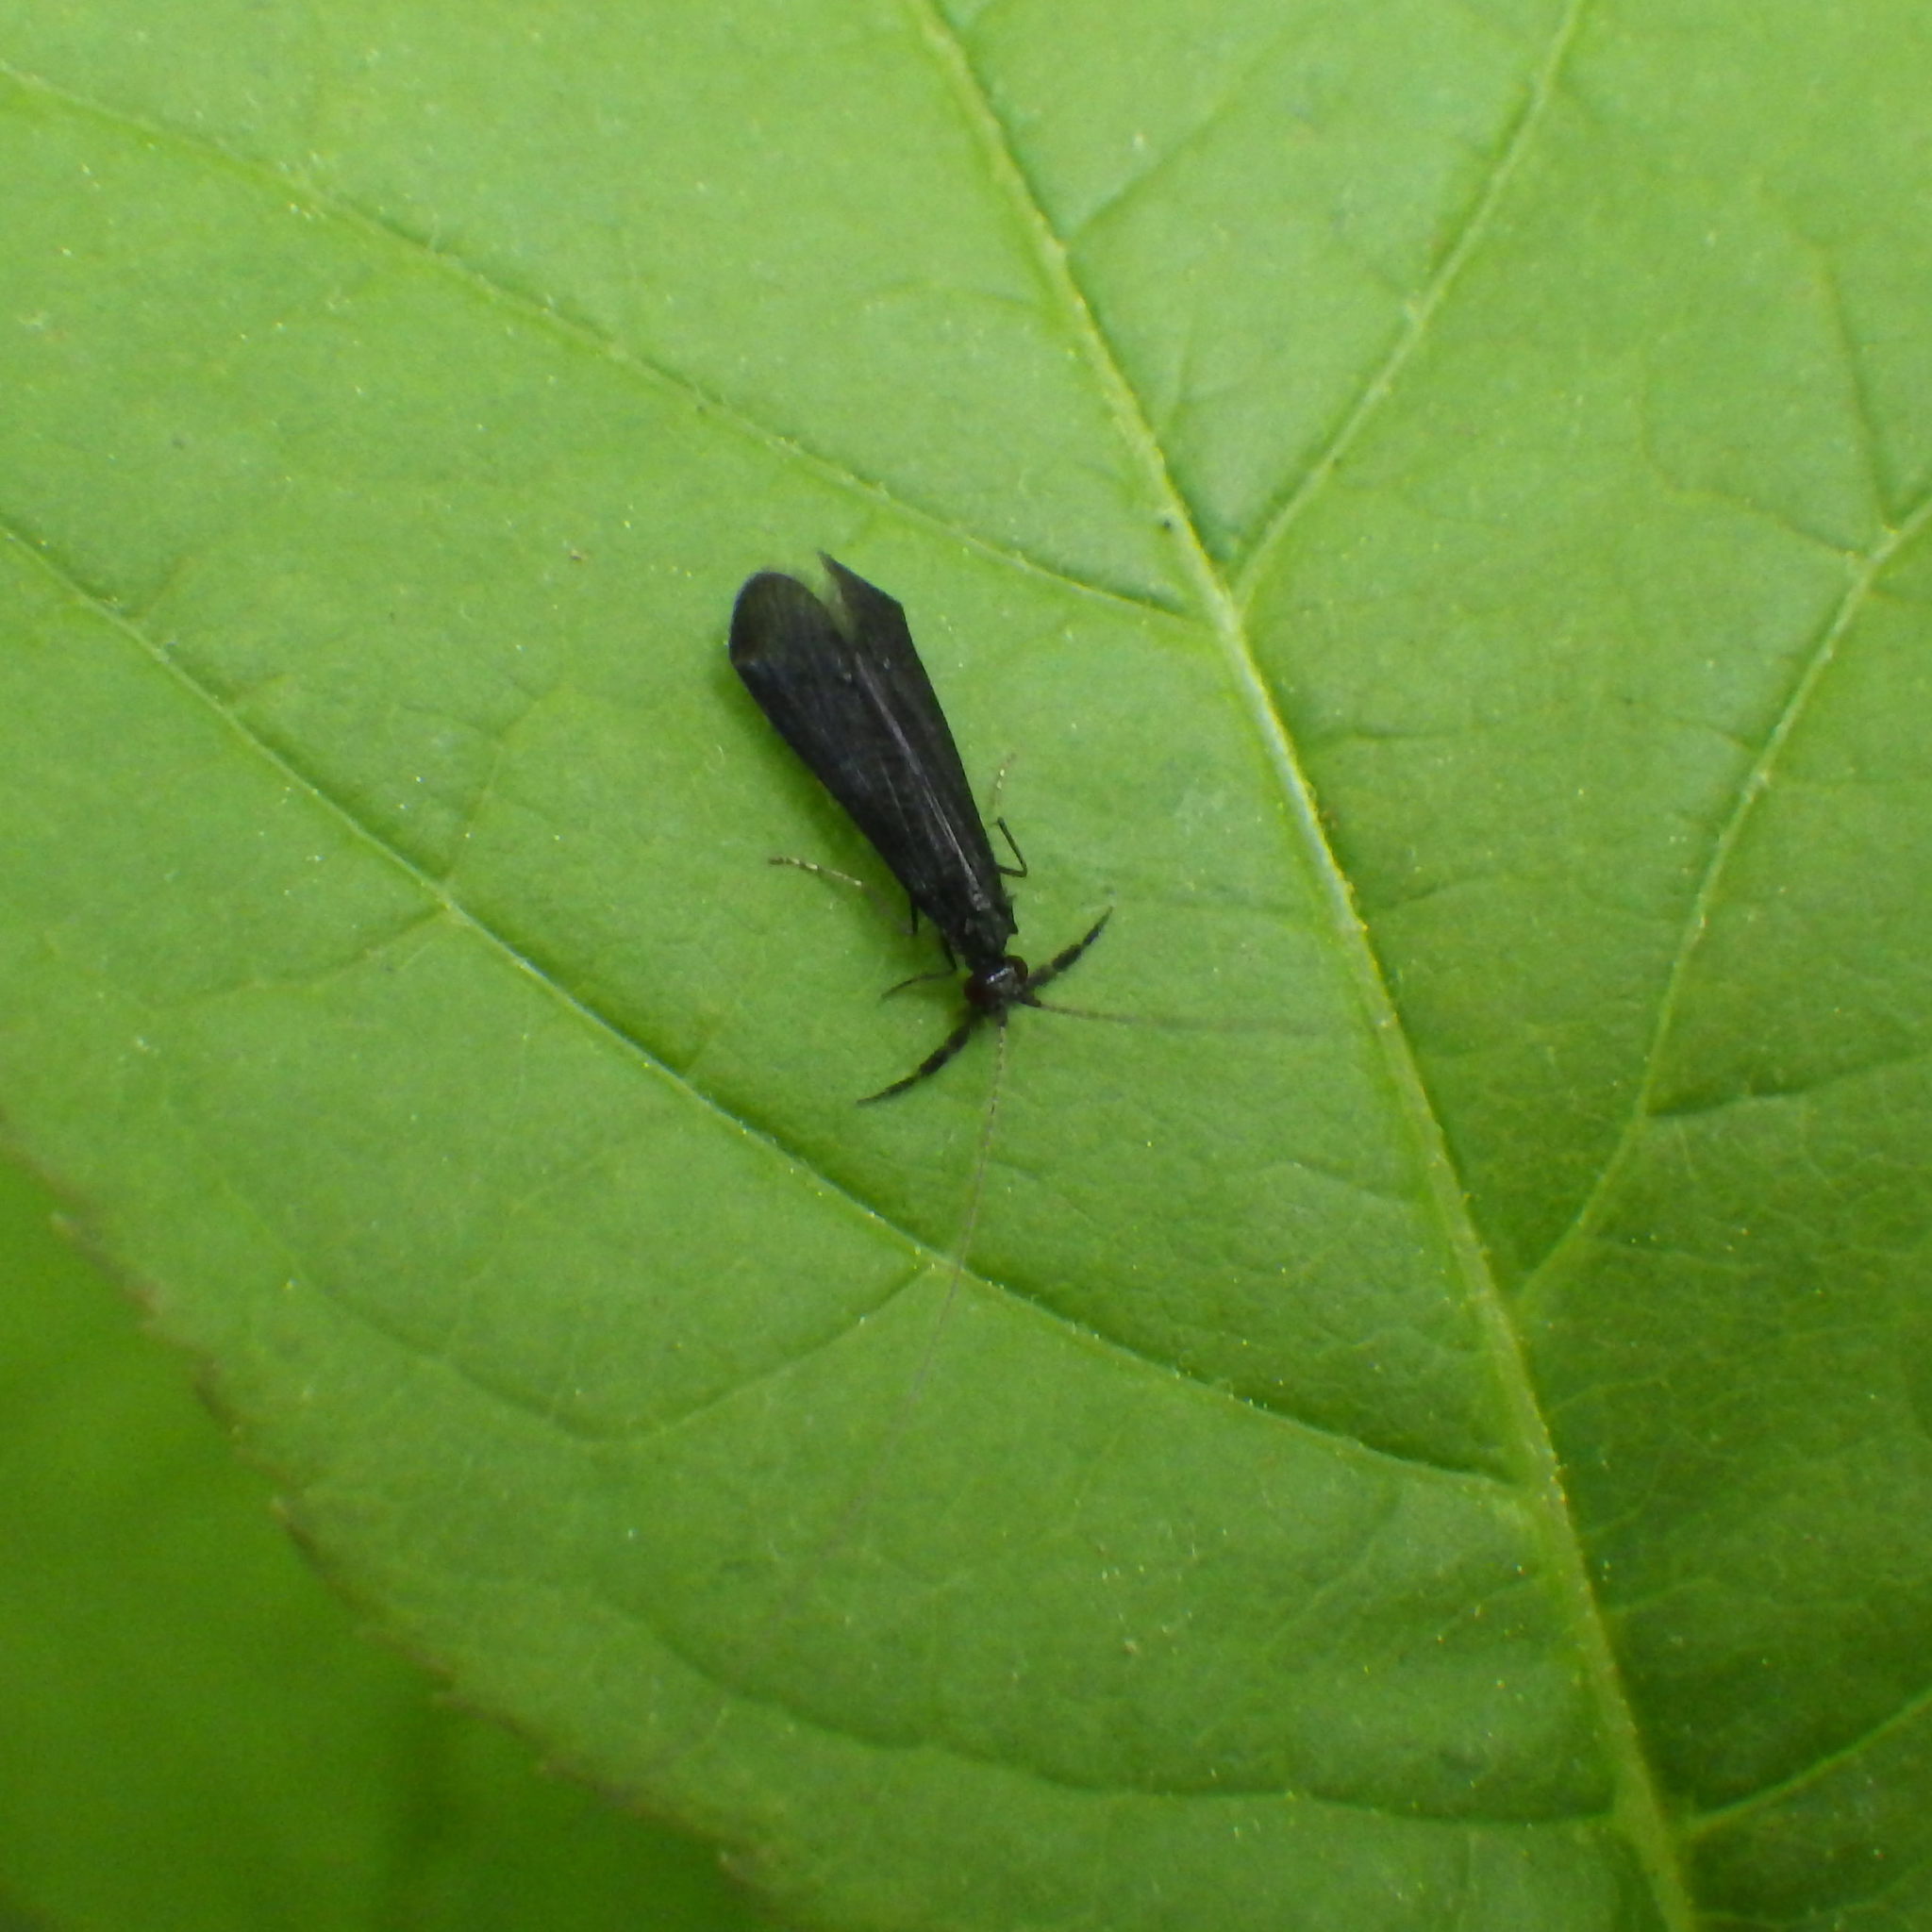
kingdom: Animalia
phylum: Arthropoda
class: Insecta
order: Trichoptera
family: Leptoceridae
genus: Mystacides
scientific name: Mystacides sepulchralis
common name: Black dancer caddisfly
